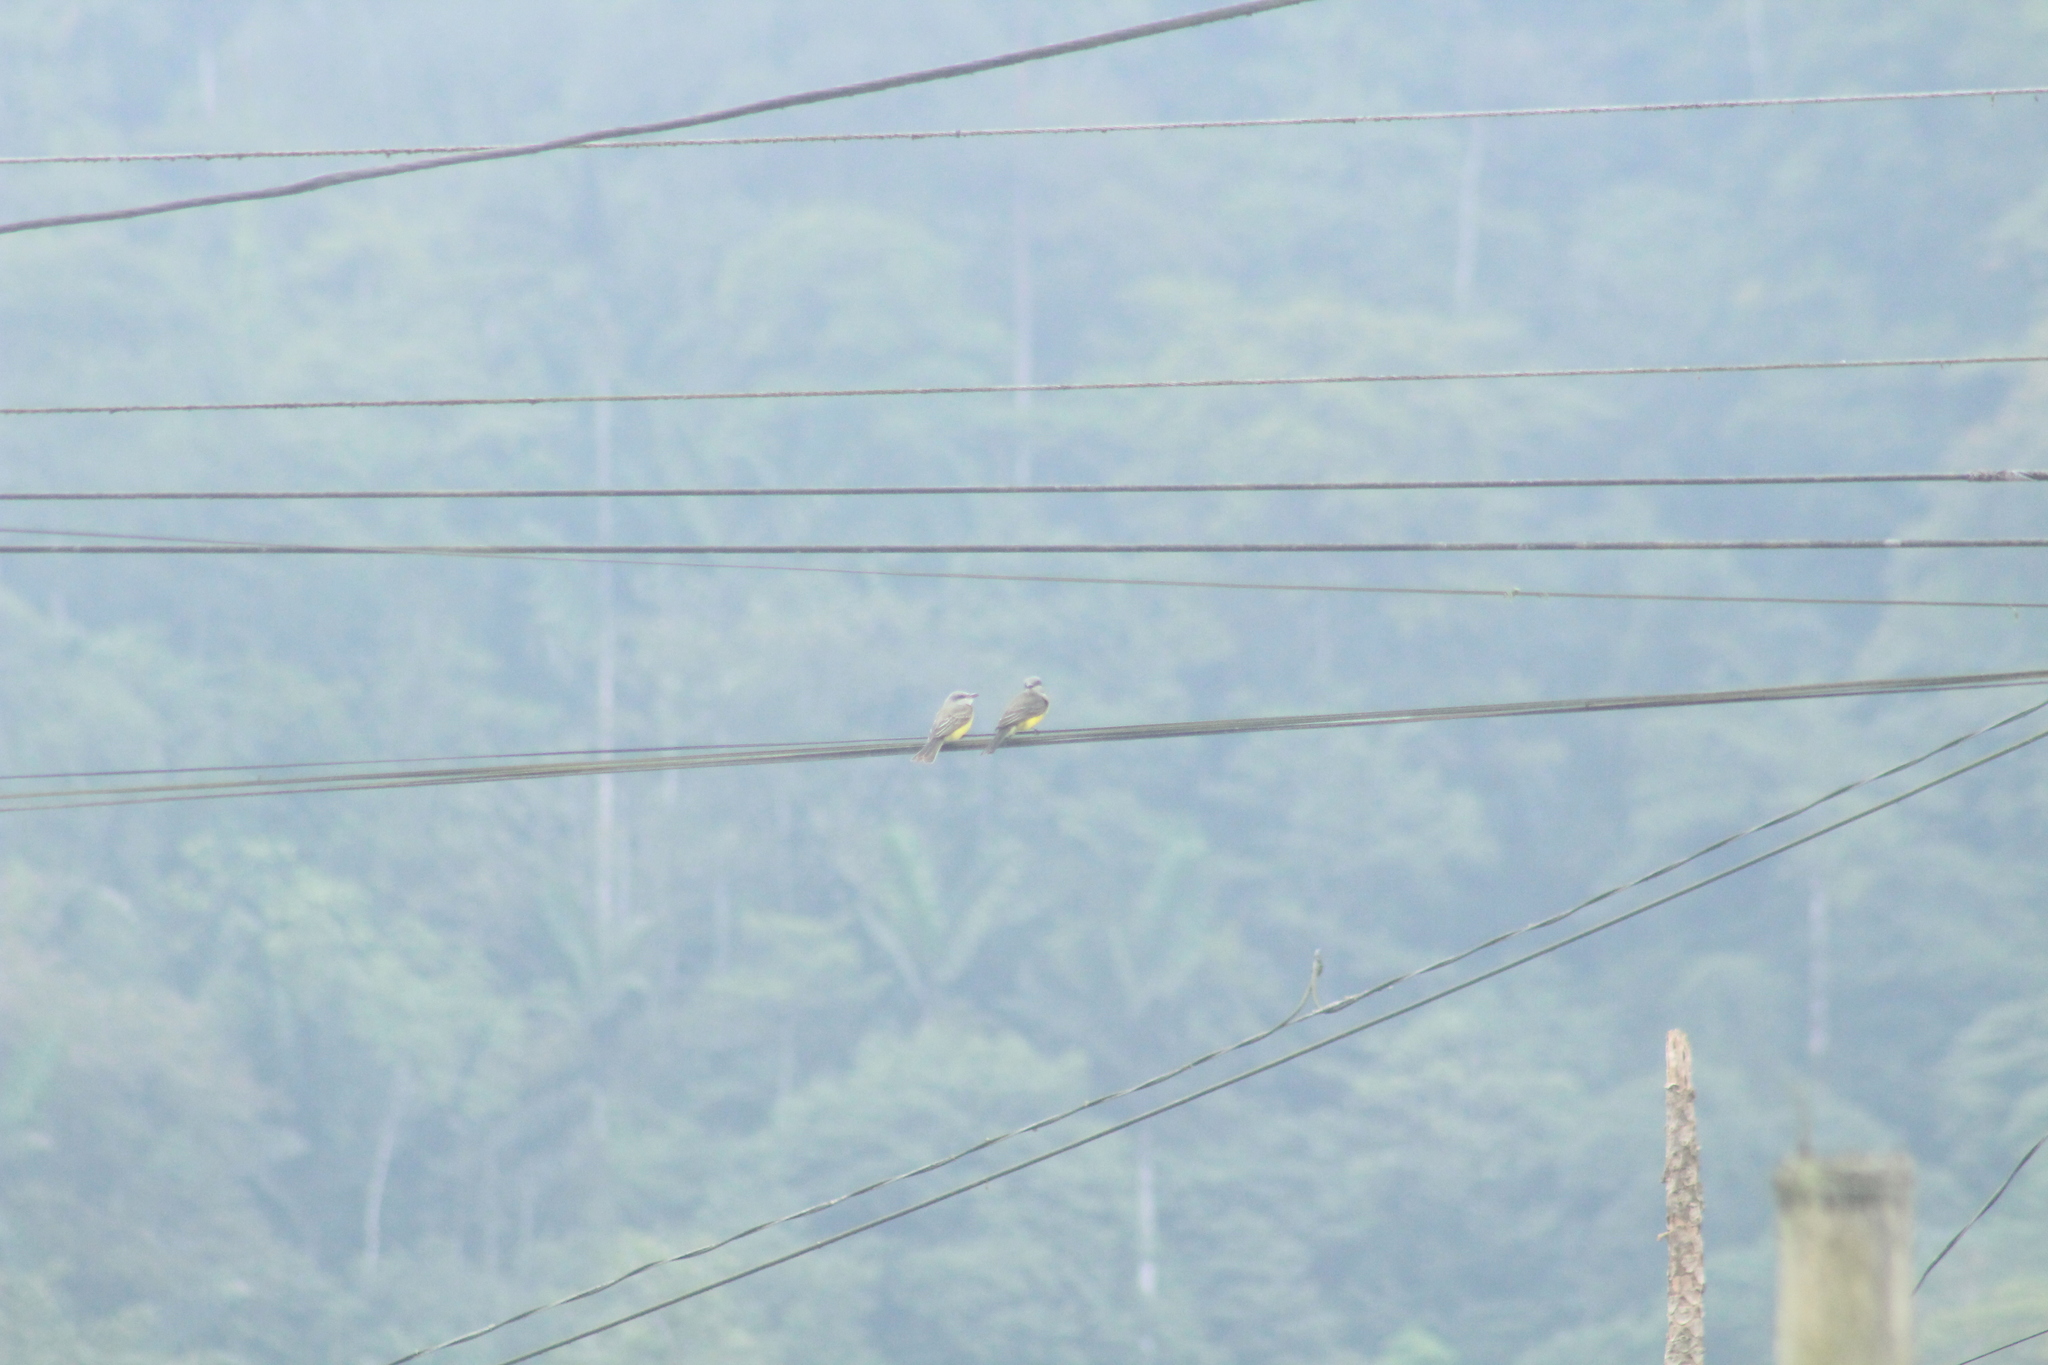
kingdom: Animalia
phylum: Chordata
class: Aves
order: Passeriformes
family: Tyrannidae
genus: Tyrannus
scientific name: Tyrannus melancholicus
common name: Tropical kingbird
